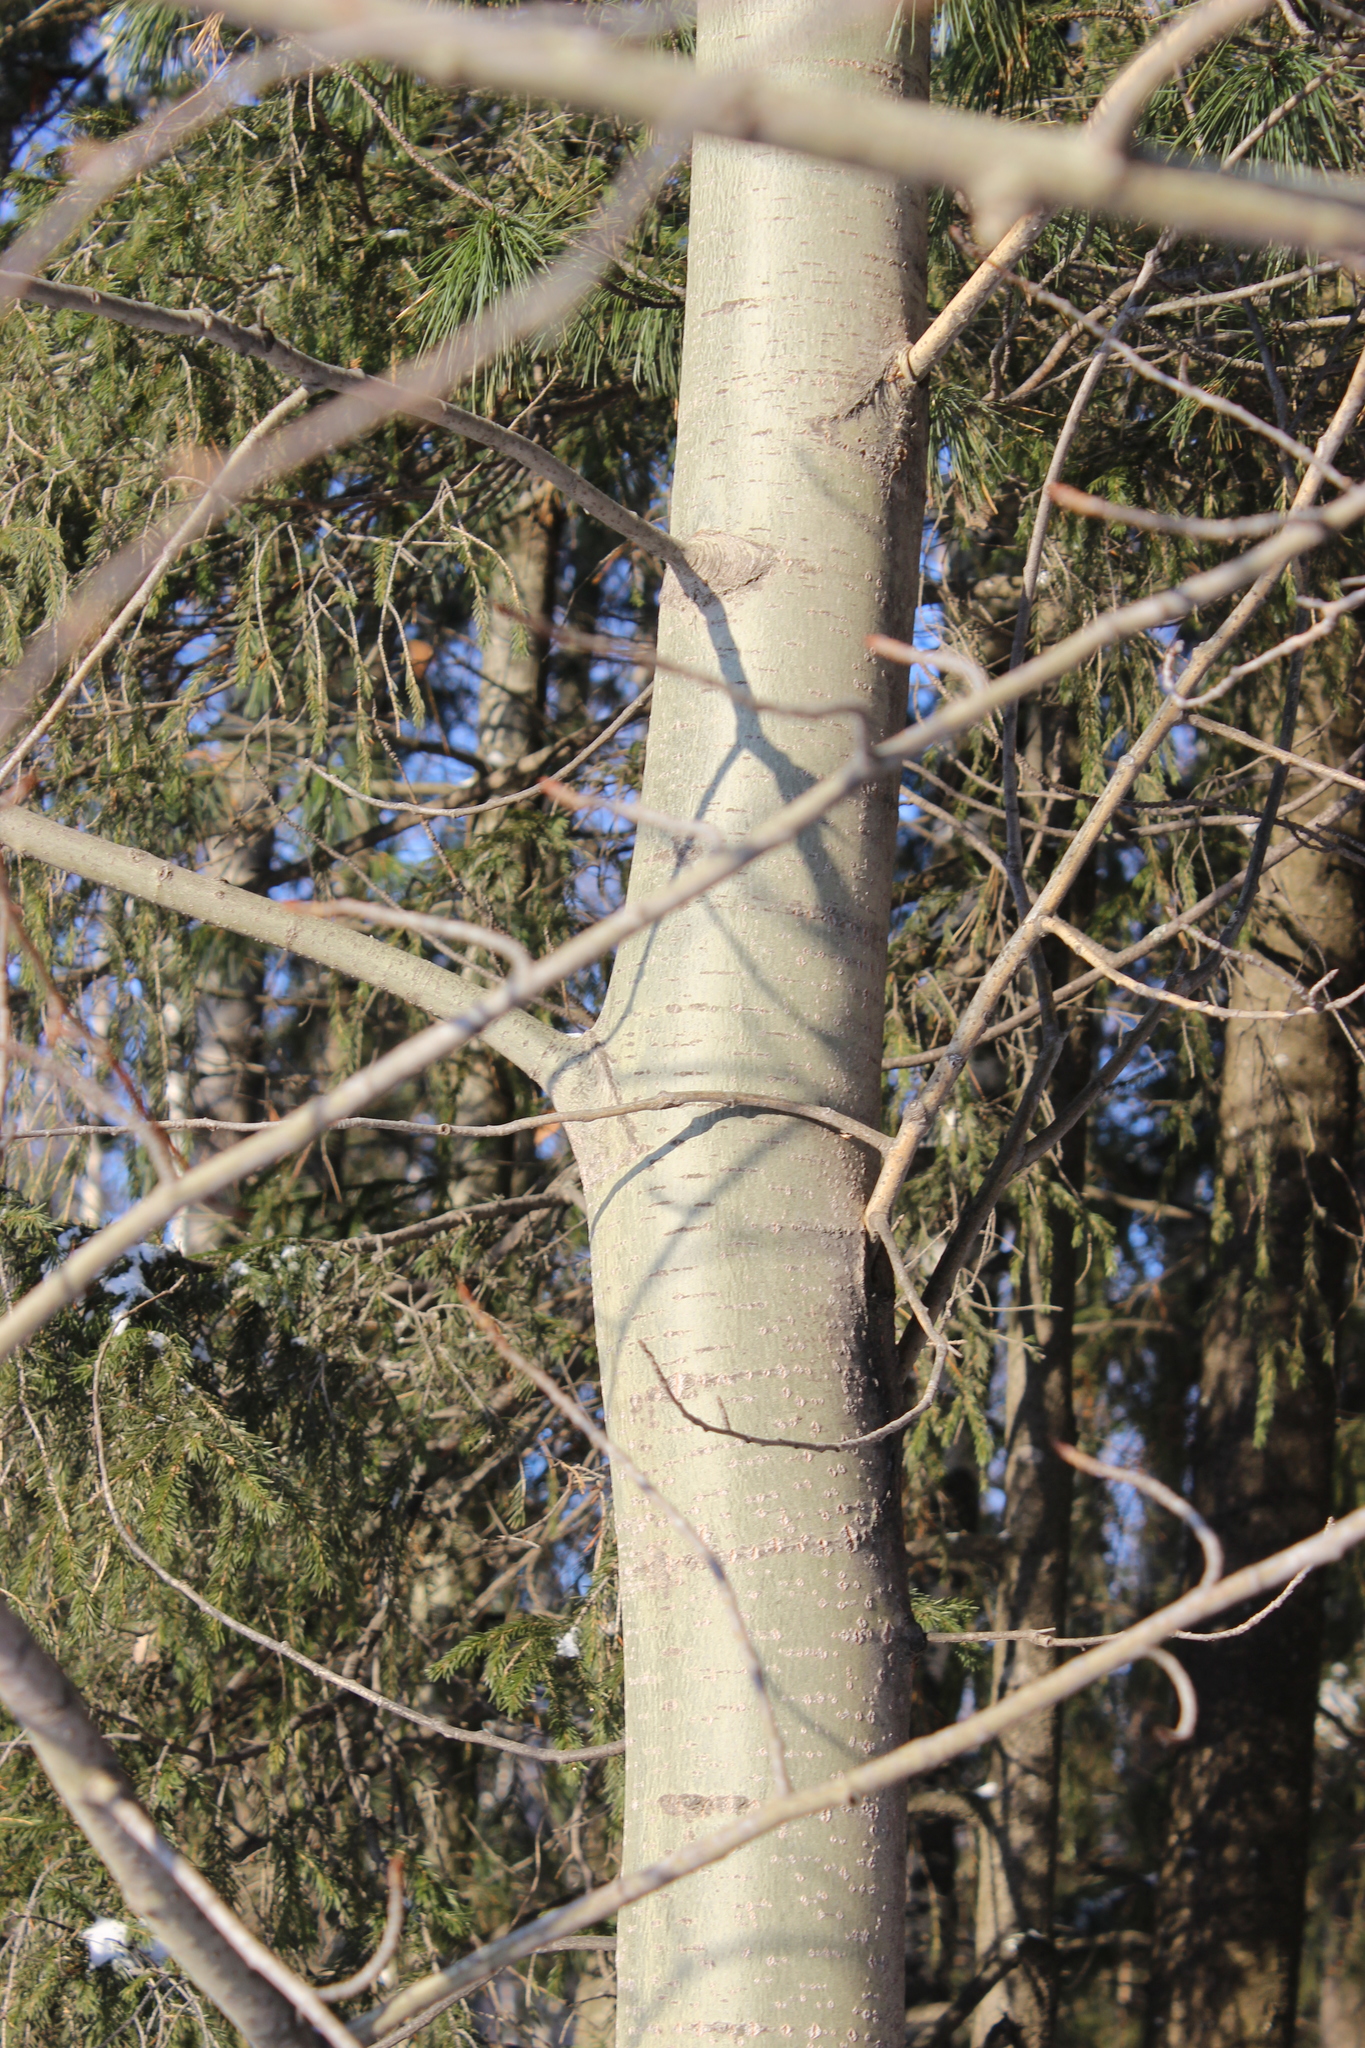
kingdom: Plantae
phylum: Tracheophyta
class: Magnoliopsida
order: Malpighiales
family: Salicaceae
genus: Populus
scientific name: Populus tremula
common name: European aspen
